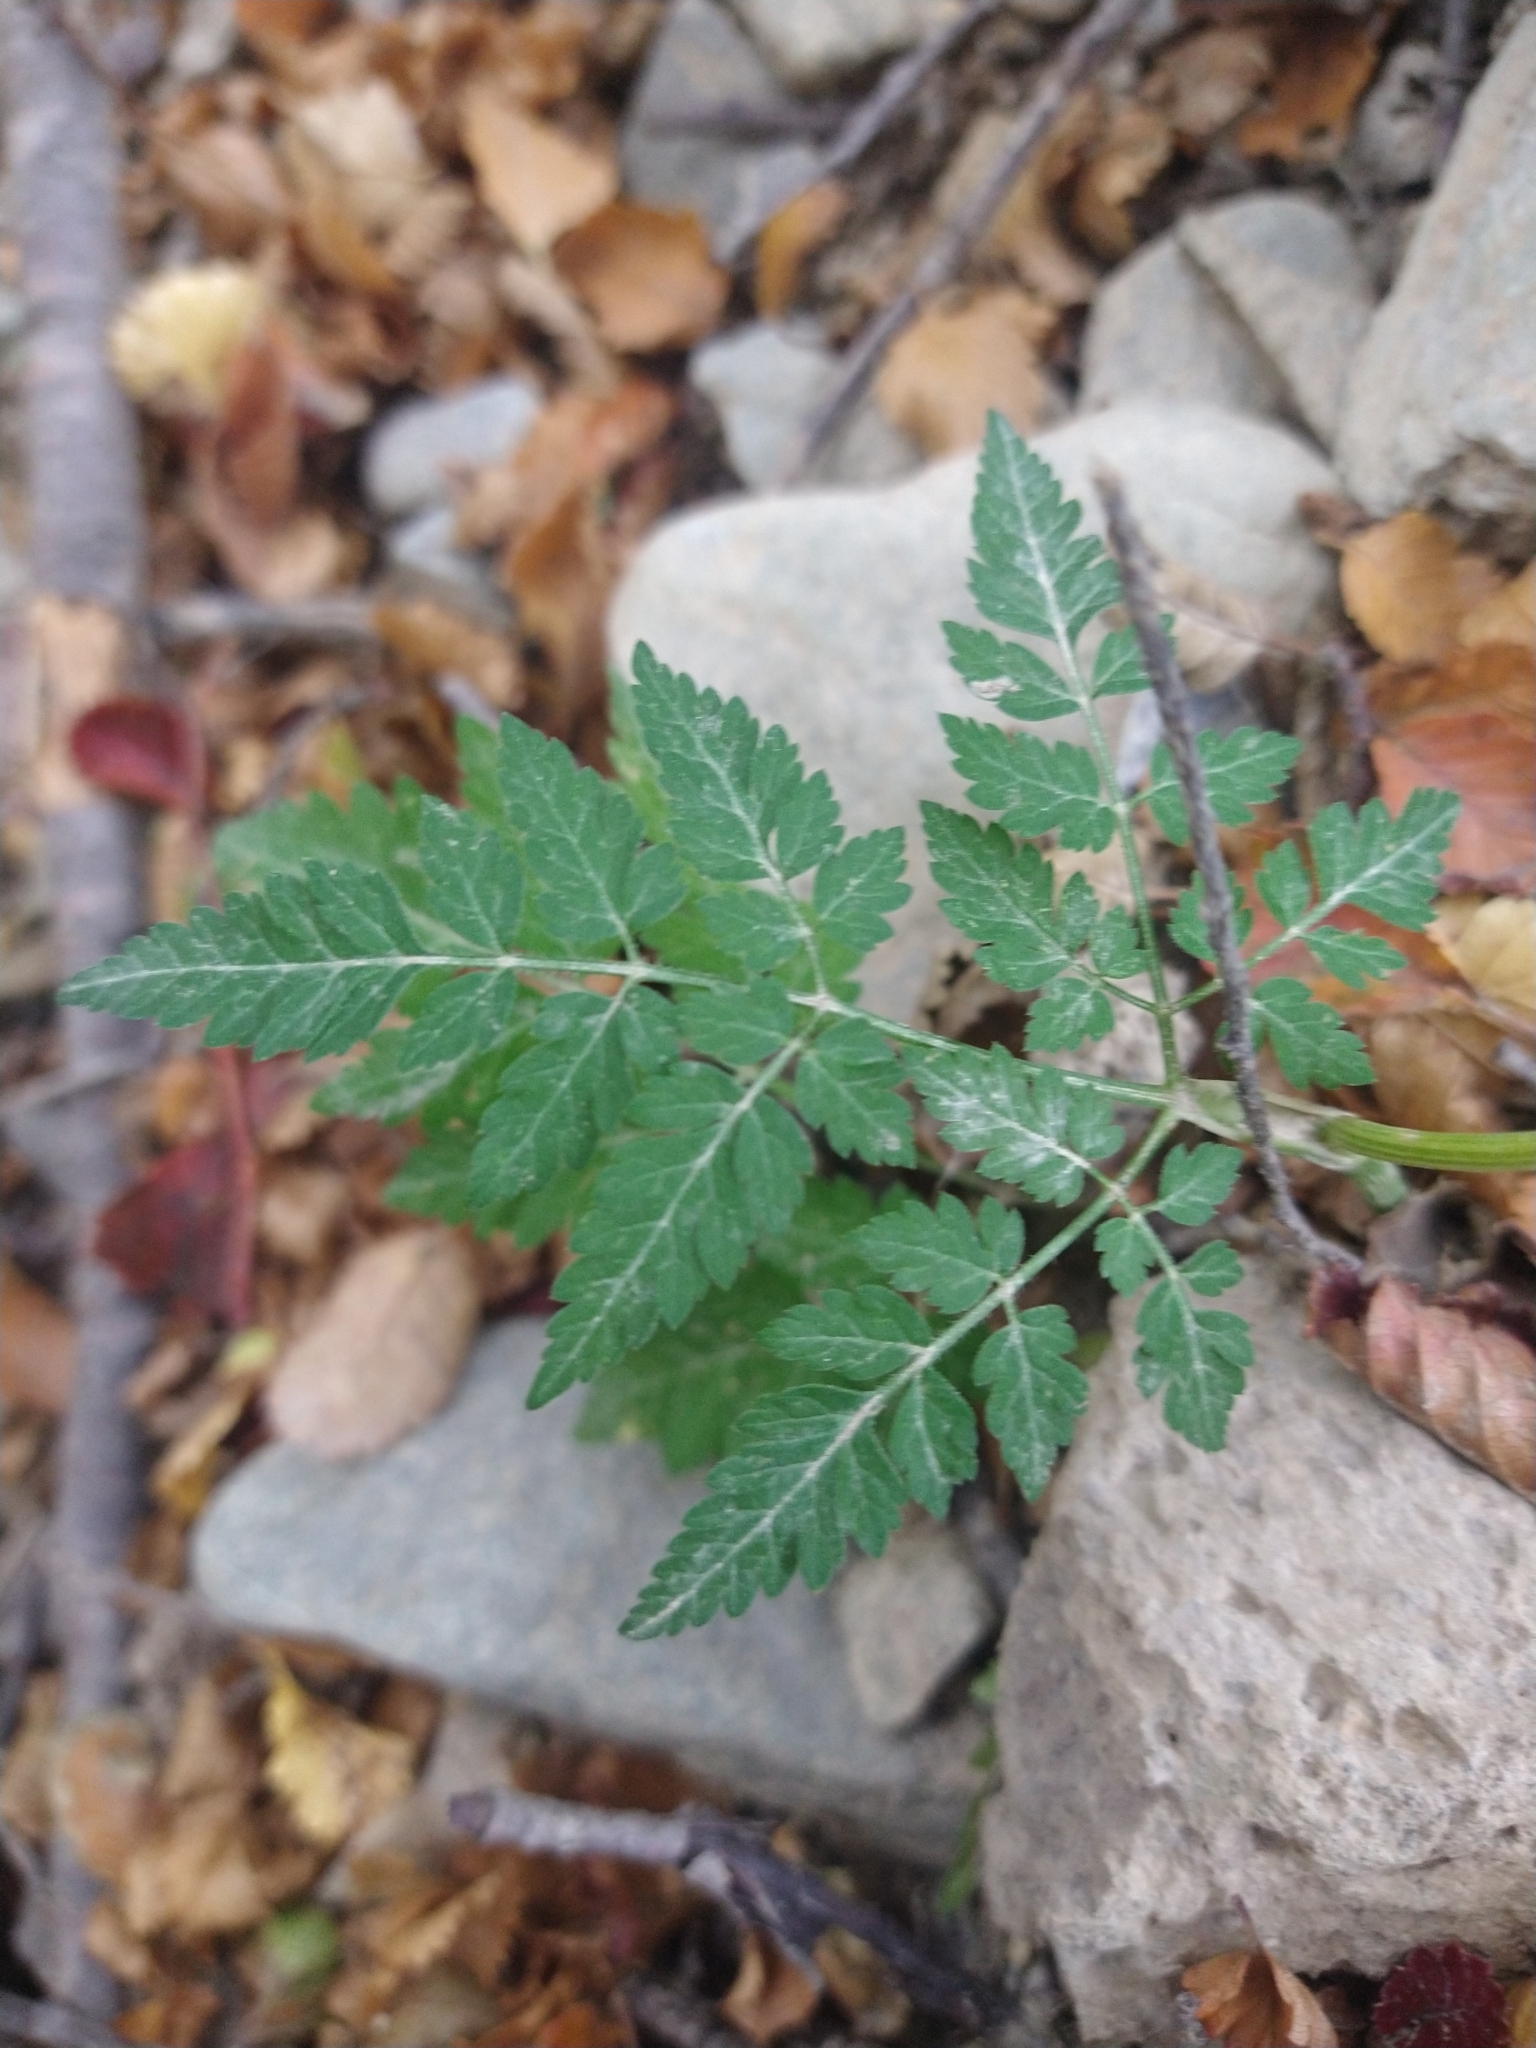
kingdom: Plantae
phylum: Tracheophyta
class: Magnoliopsida
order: Apiales
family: Apiaceae
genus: Osmorhiza
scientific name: Osmorhiza berteroi
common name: Mountain sweet cicely
